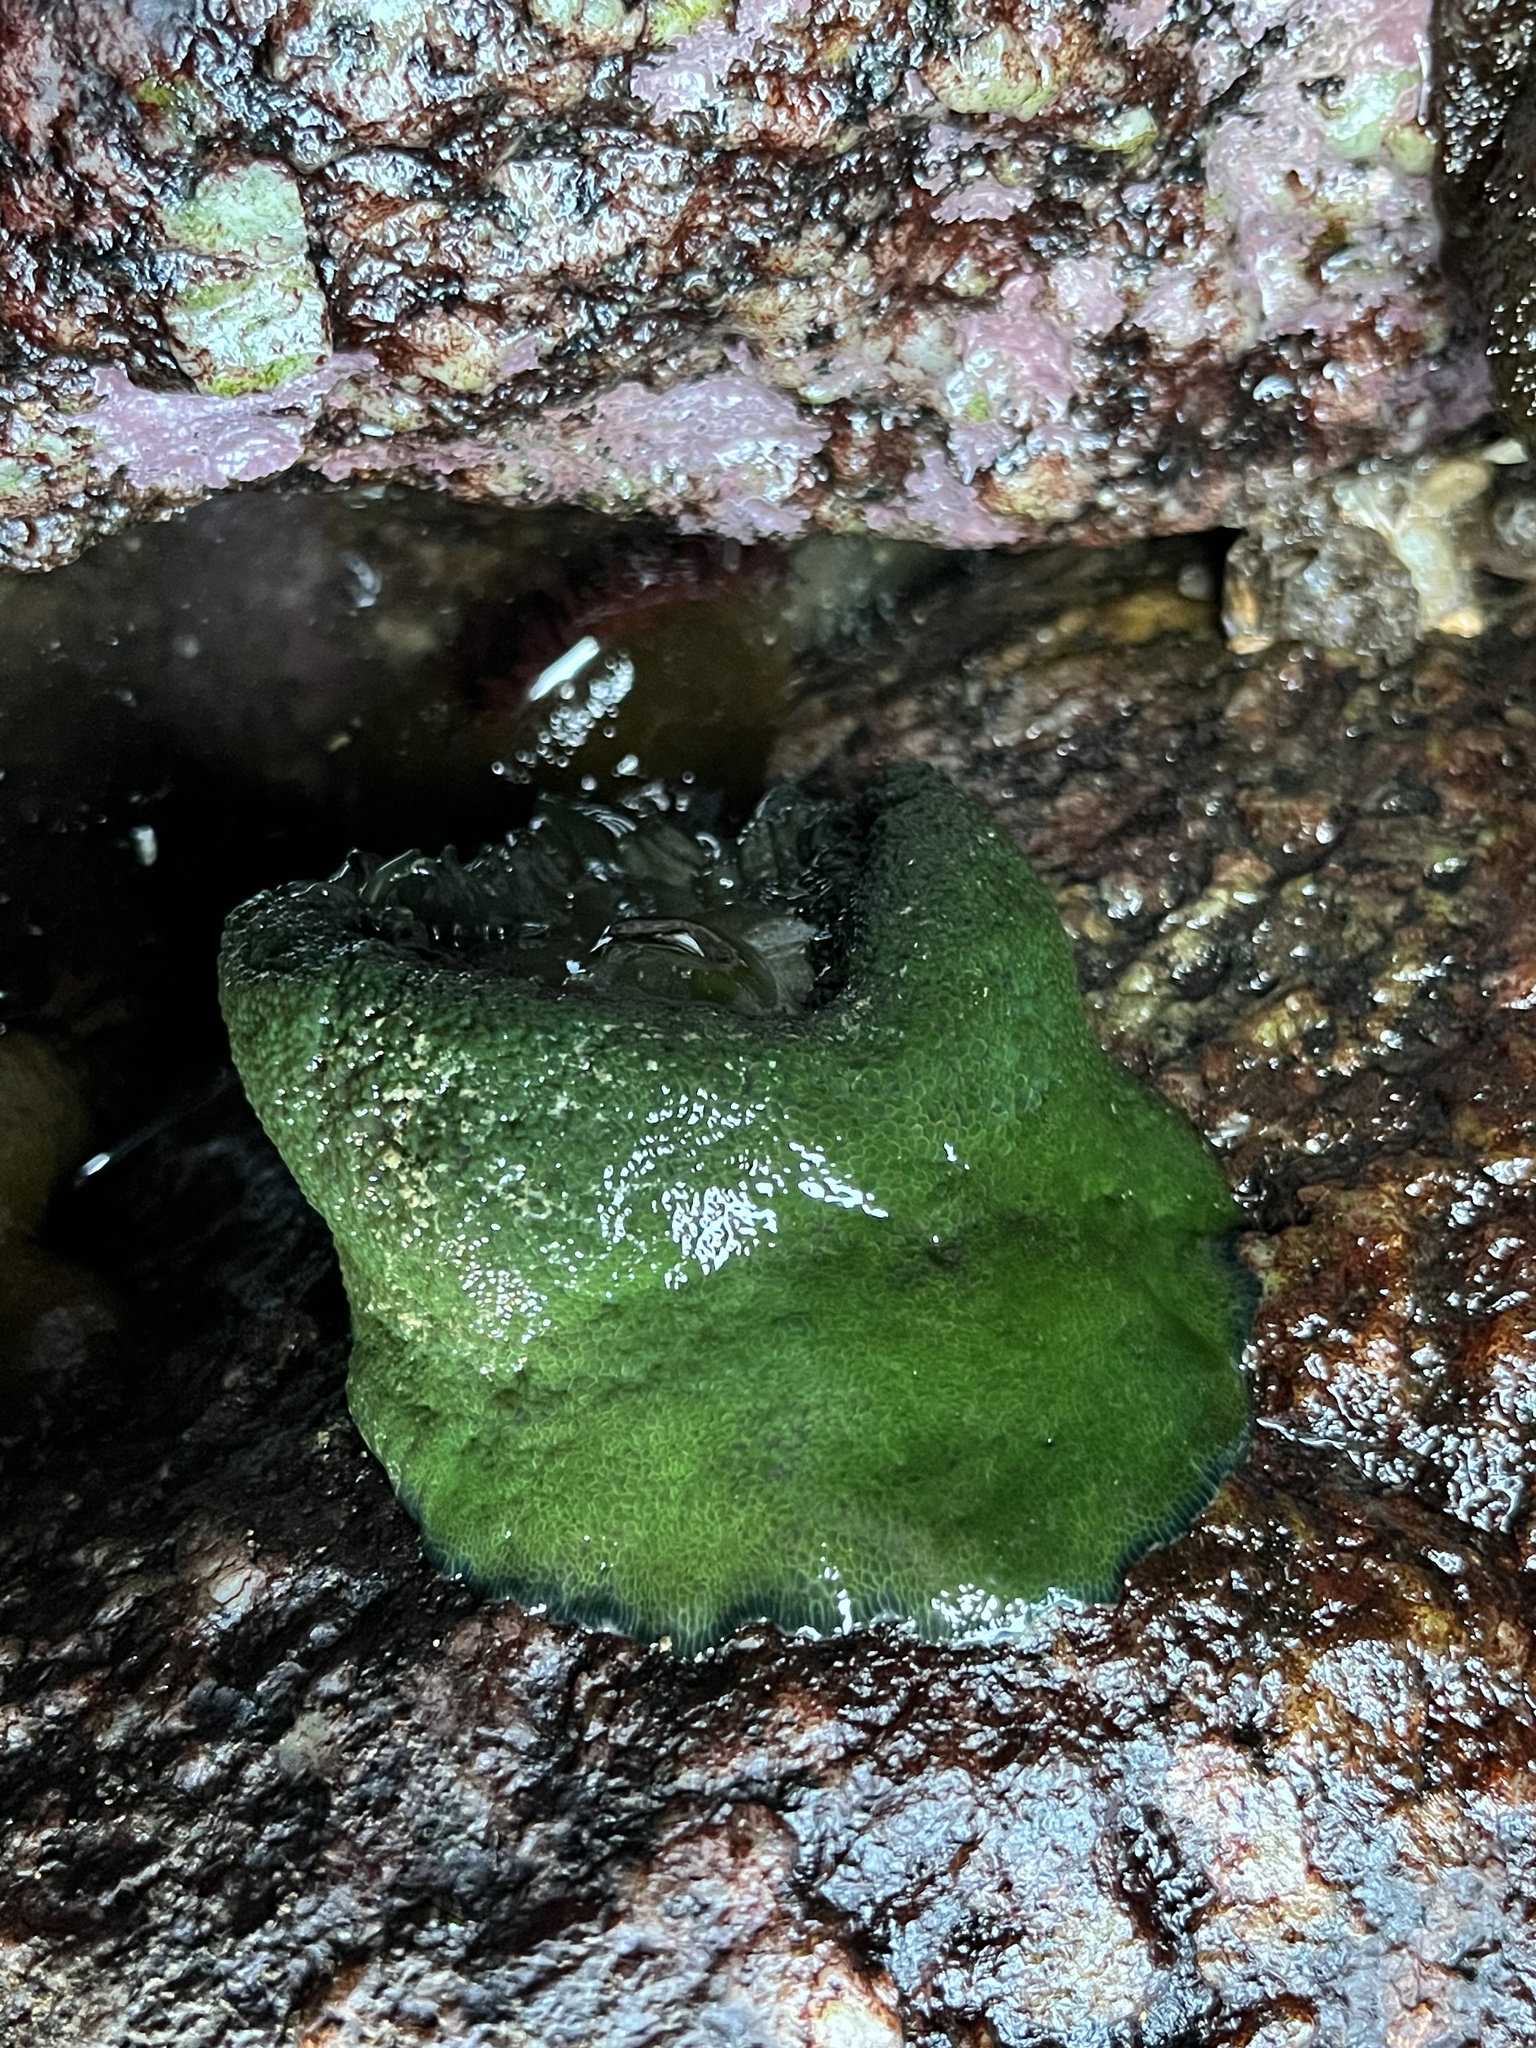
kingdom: Animalia
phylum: Cnidaria
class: Anthozoa
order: Actiniaria
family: Actiniidae
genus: Phymactis
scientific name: Phymactis papillosa
